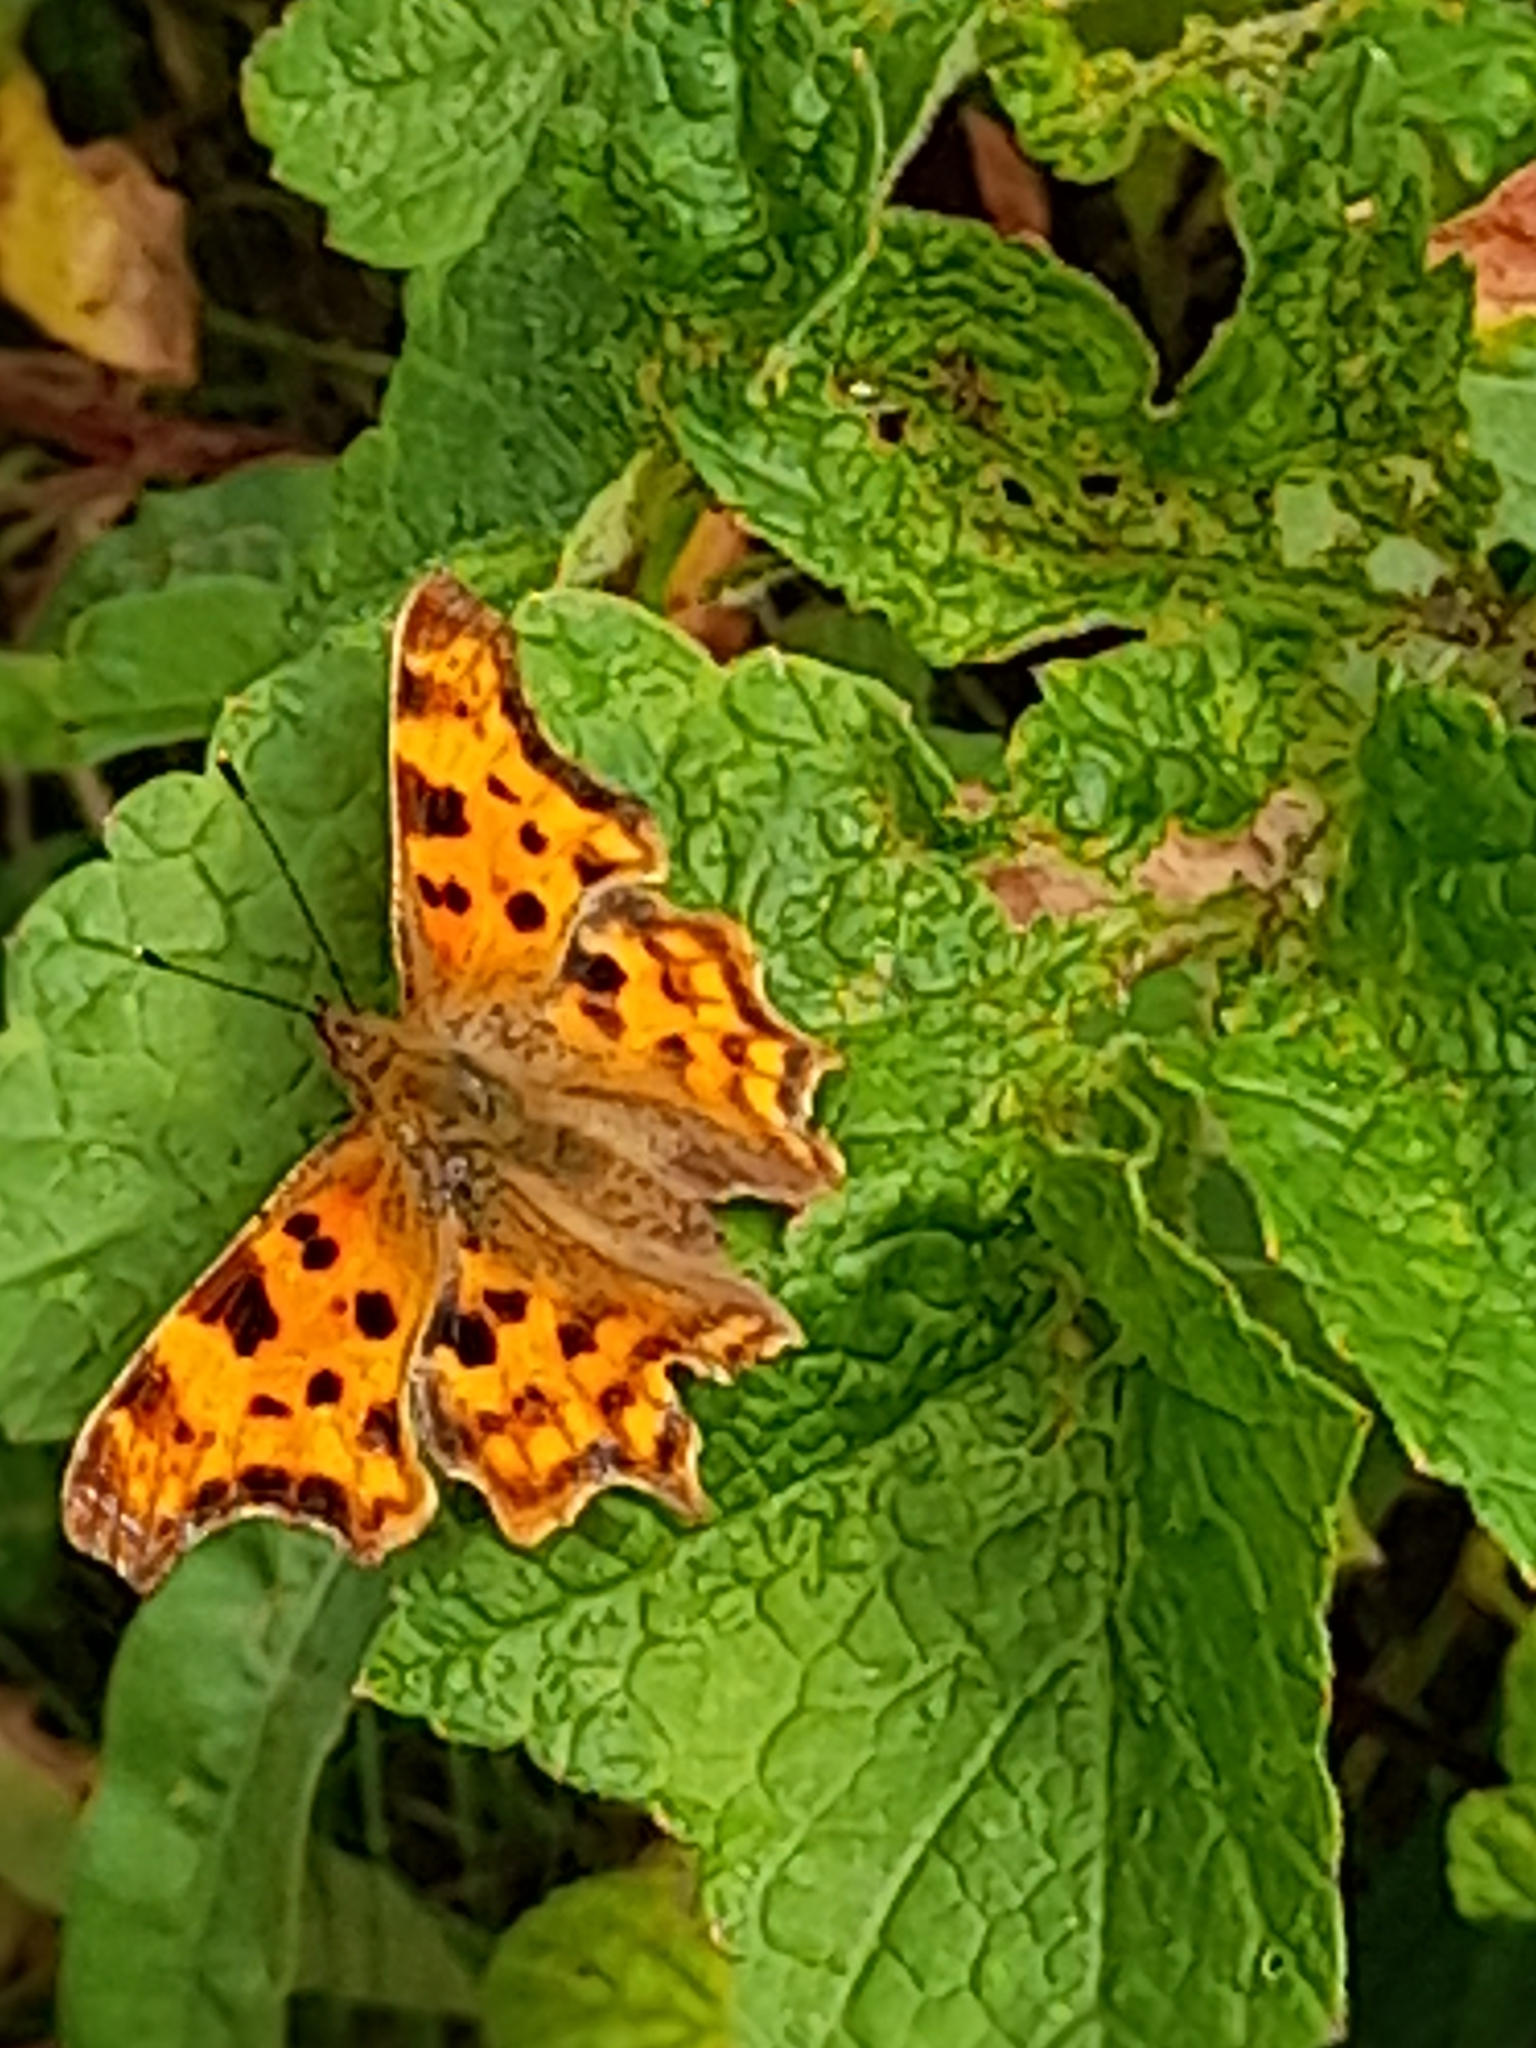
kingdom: Animalia
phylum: Arthropoda
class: Insecta
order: Lepidoptera
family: Nymphalidae
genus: Polygonia
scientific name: Polygonia c-album
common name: Comma
